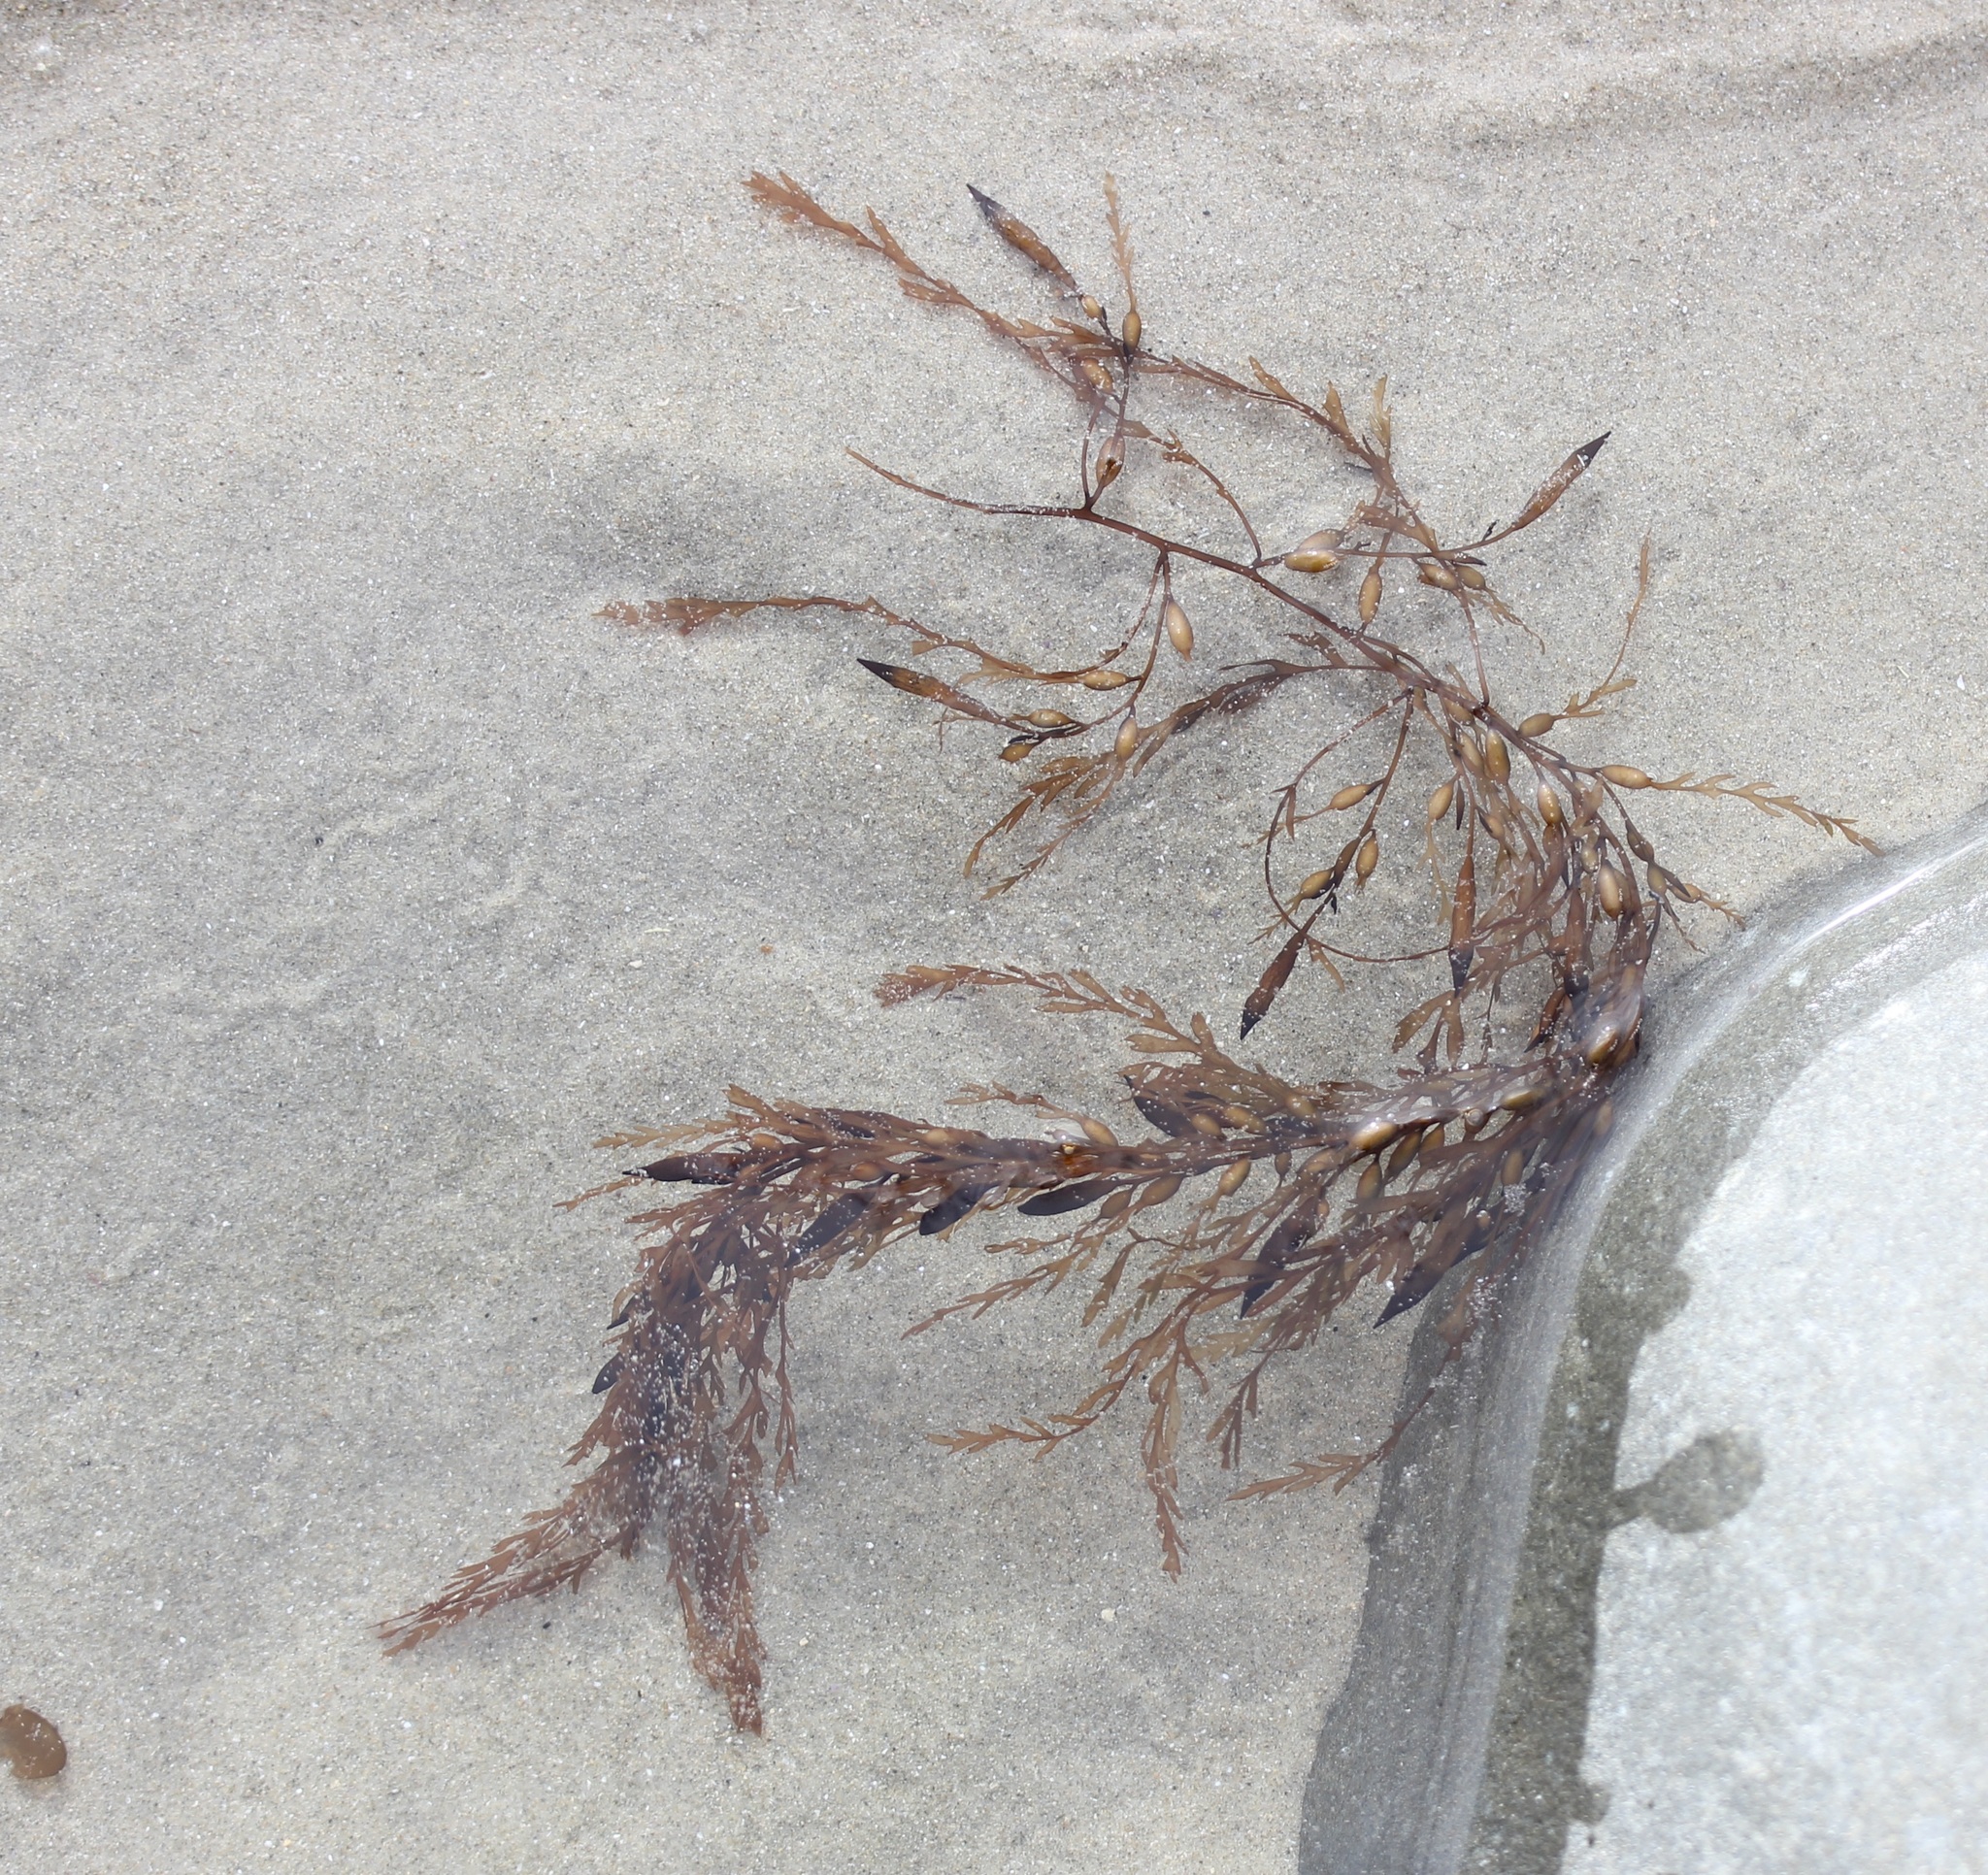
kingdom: Chromista
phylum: Ochrophyta
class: Phaeophyceae
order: Fucales
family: Sargassaceae
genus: Sargassum
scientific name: Sargassum horneri
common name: Devil weed
